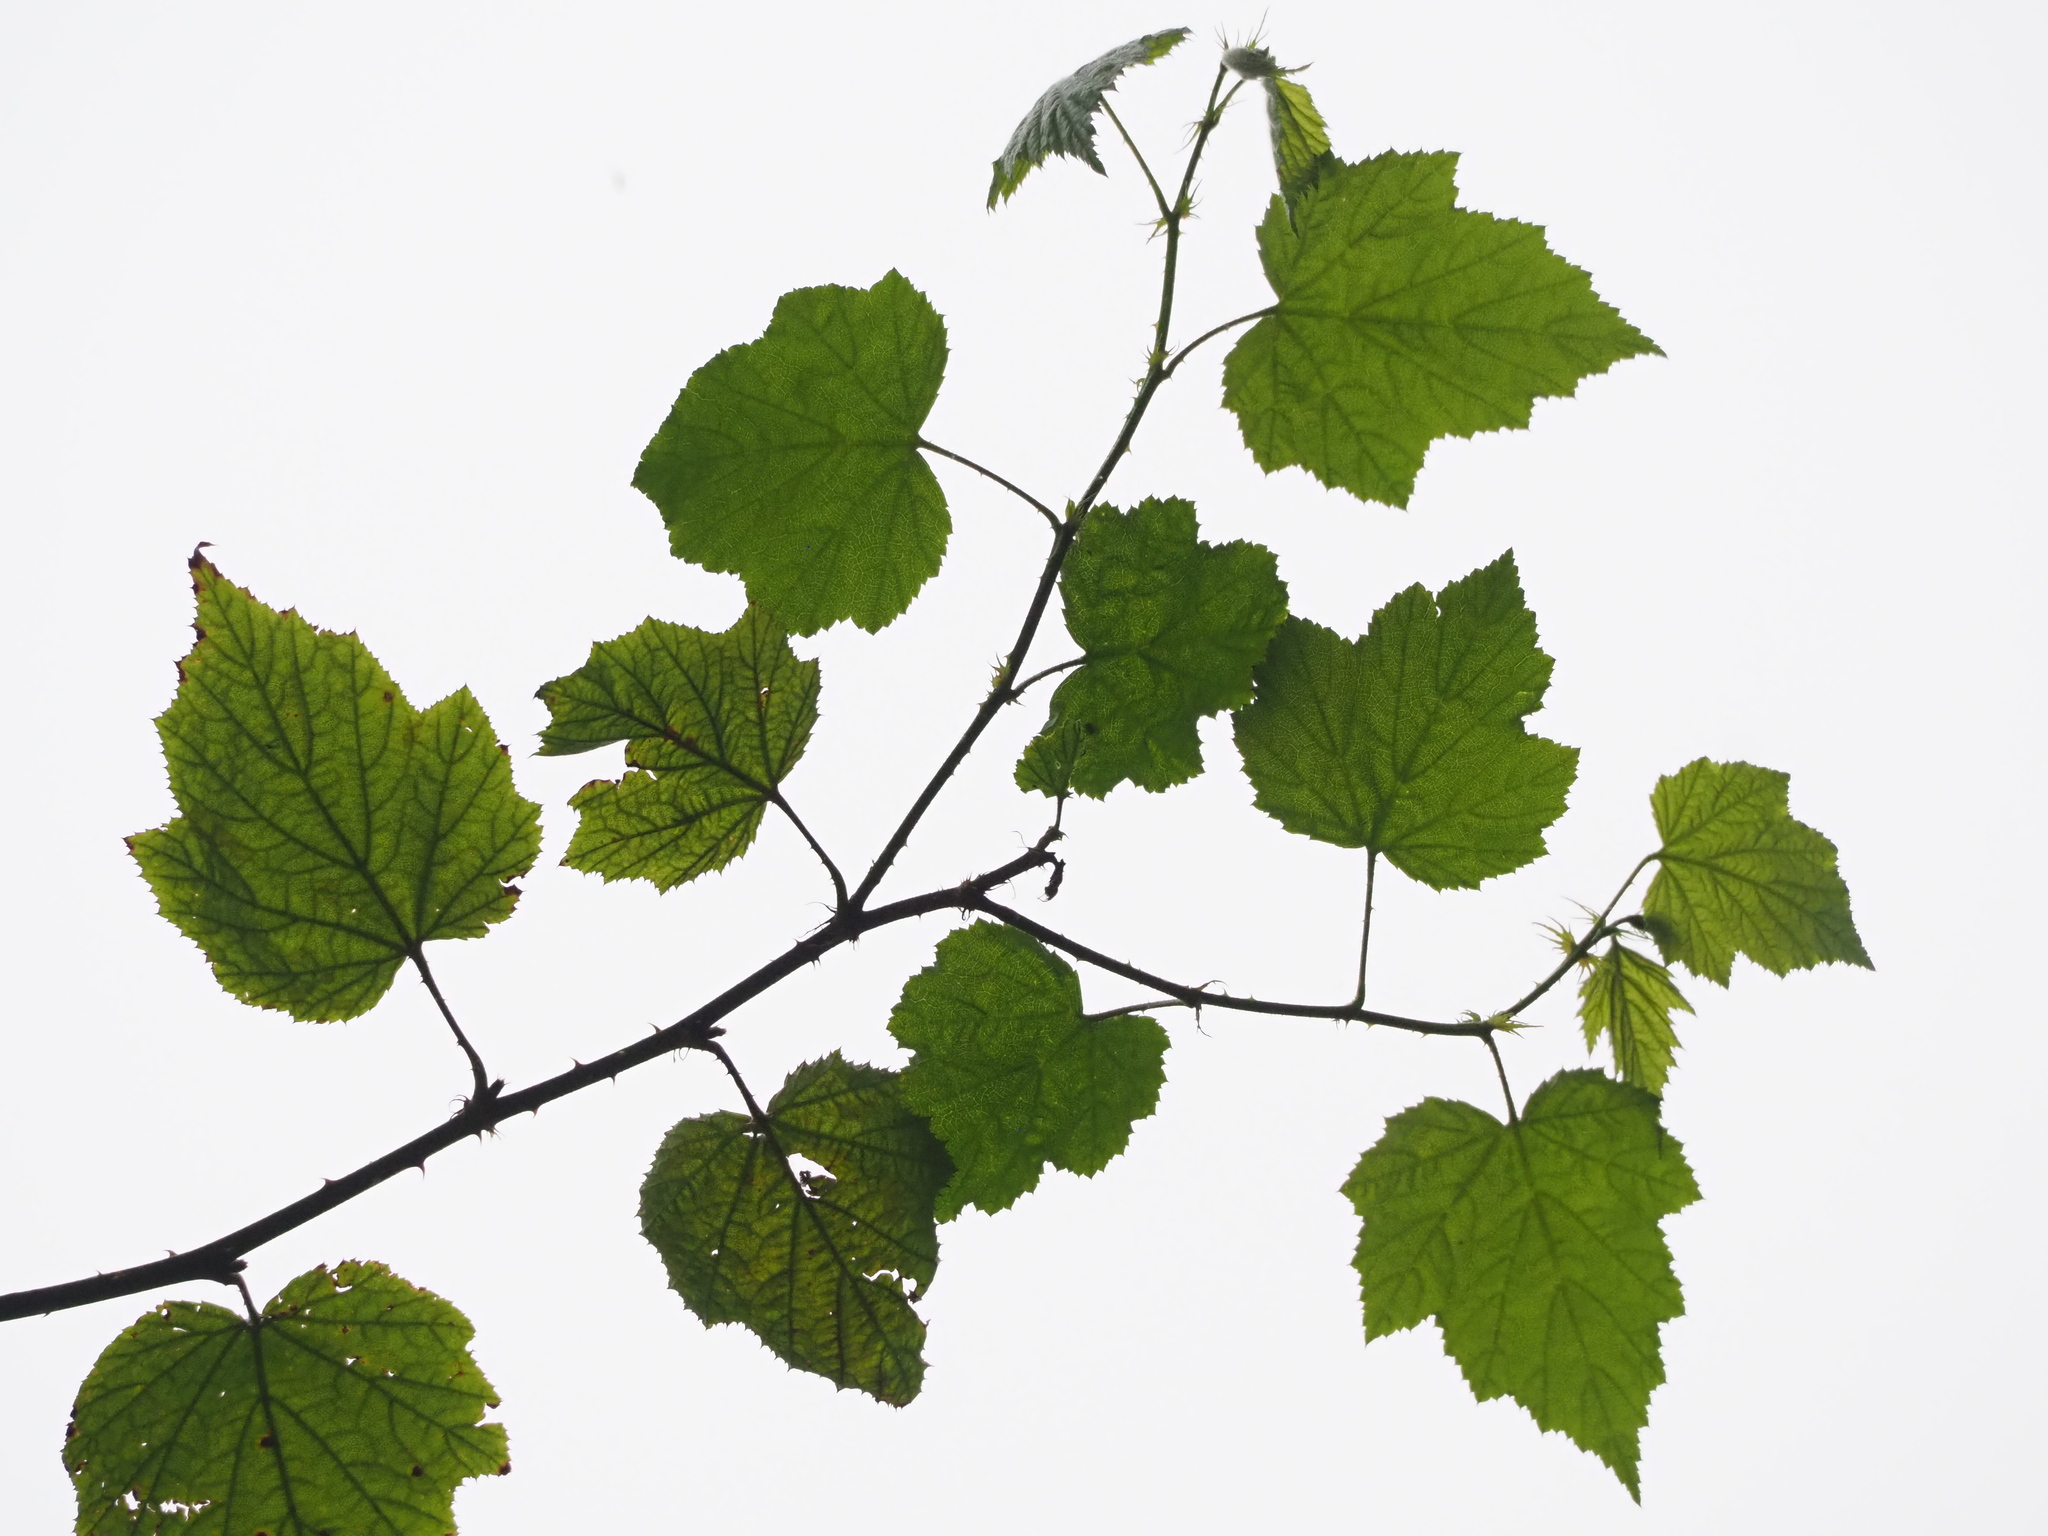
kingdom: Plantae
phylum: Tracheophyta
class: Magnoliopsida
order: Rosales
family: Rosaceae
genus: Rubus
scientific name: Rubus lambertianus
